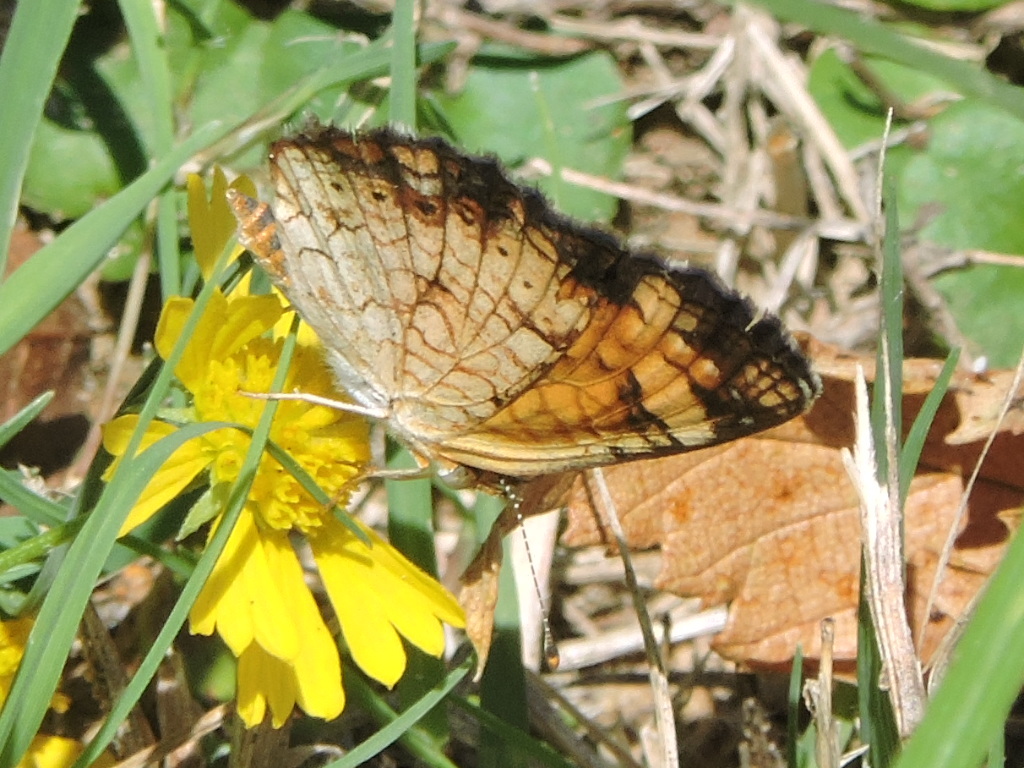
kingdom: Animalia
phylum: Arthropoda
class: Insecta
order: Lepidoptera
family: Nymphalidae
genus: Phyciodes
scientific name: Phyciodes tharos
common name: Pearl crescent
